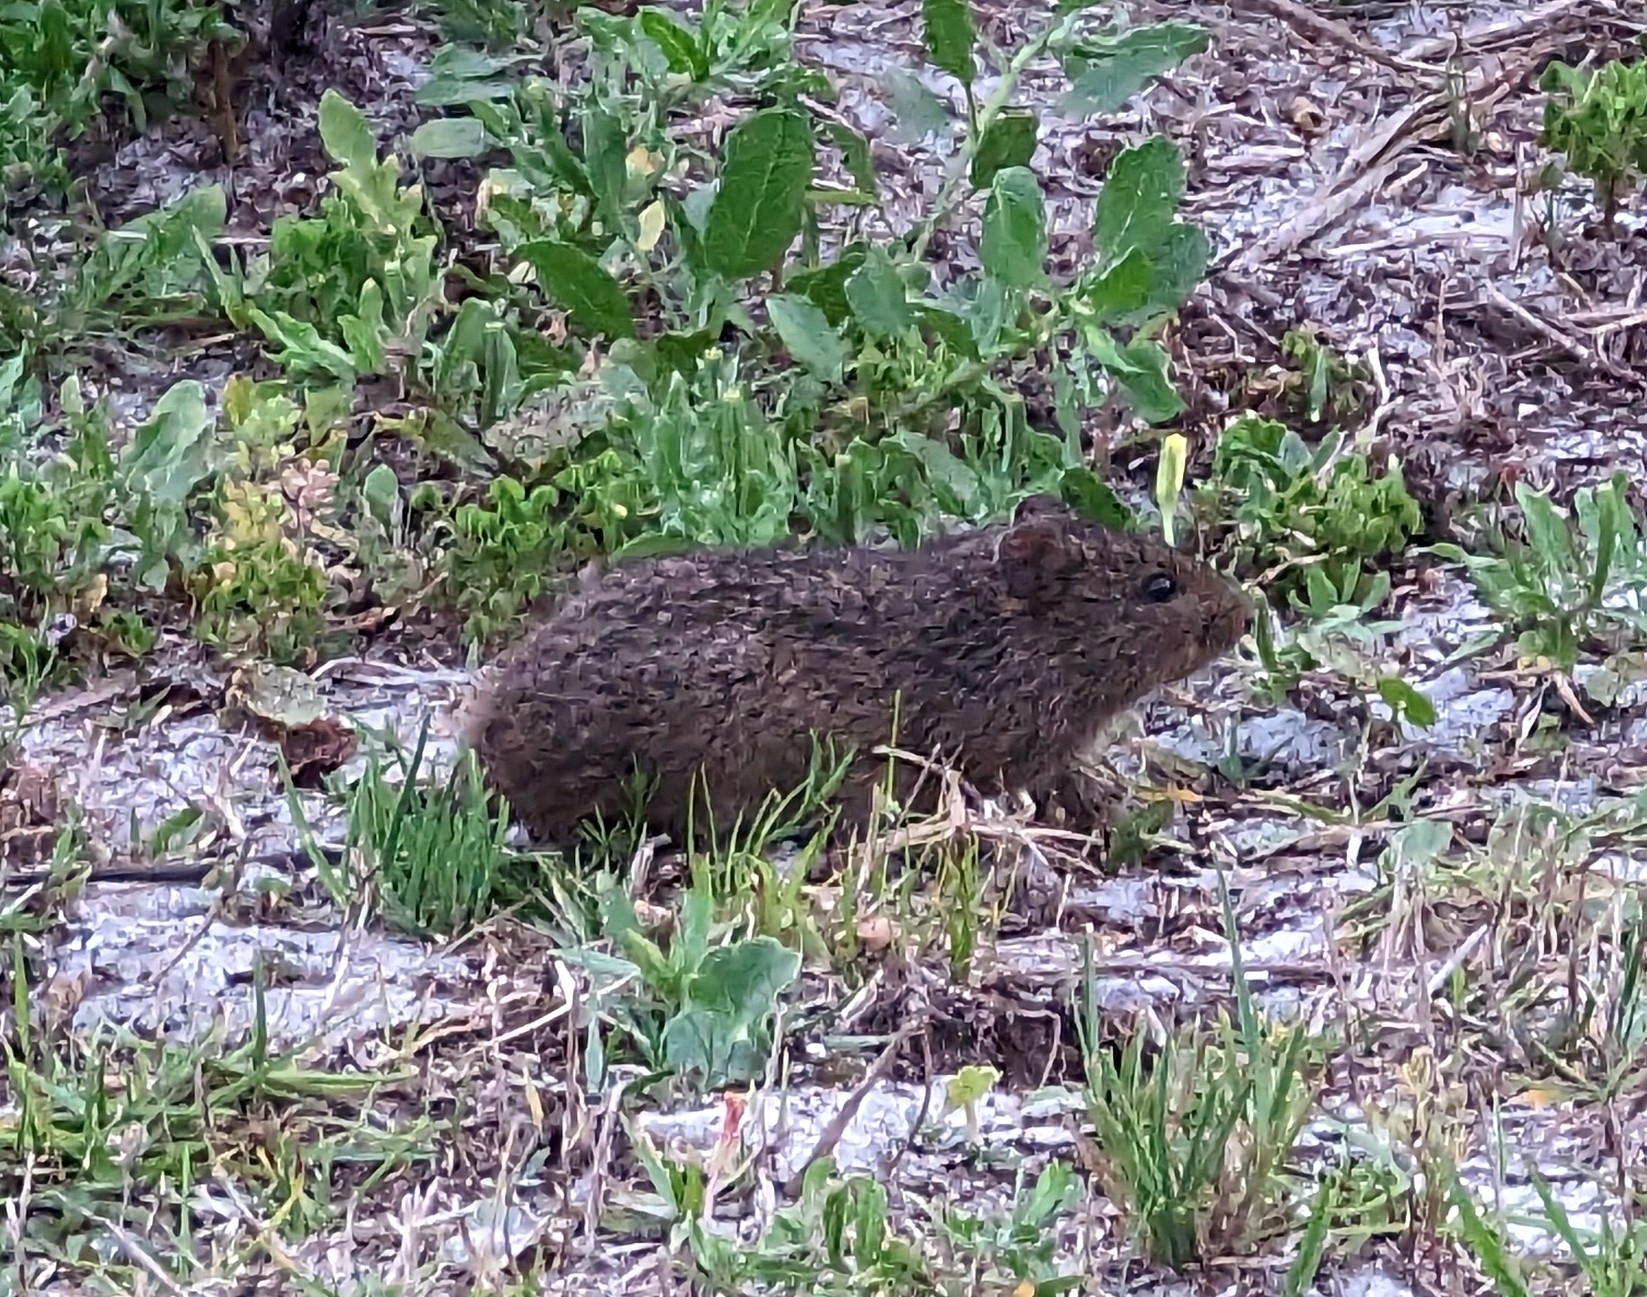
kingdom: Animalia
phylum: Chordata
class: Mammalia
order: Rodentia
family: Cricetidae
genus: Sigmodon
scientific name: Sigmodon hispidus
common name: Hispid cotton rat
